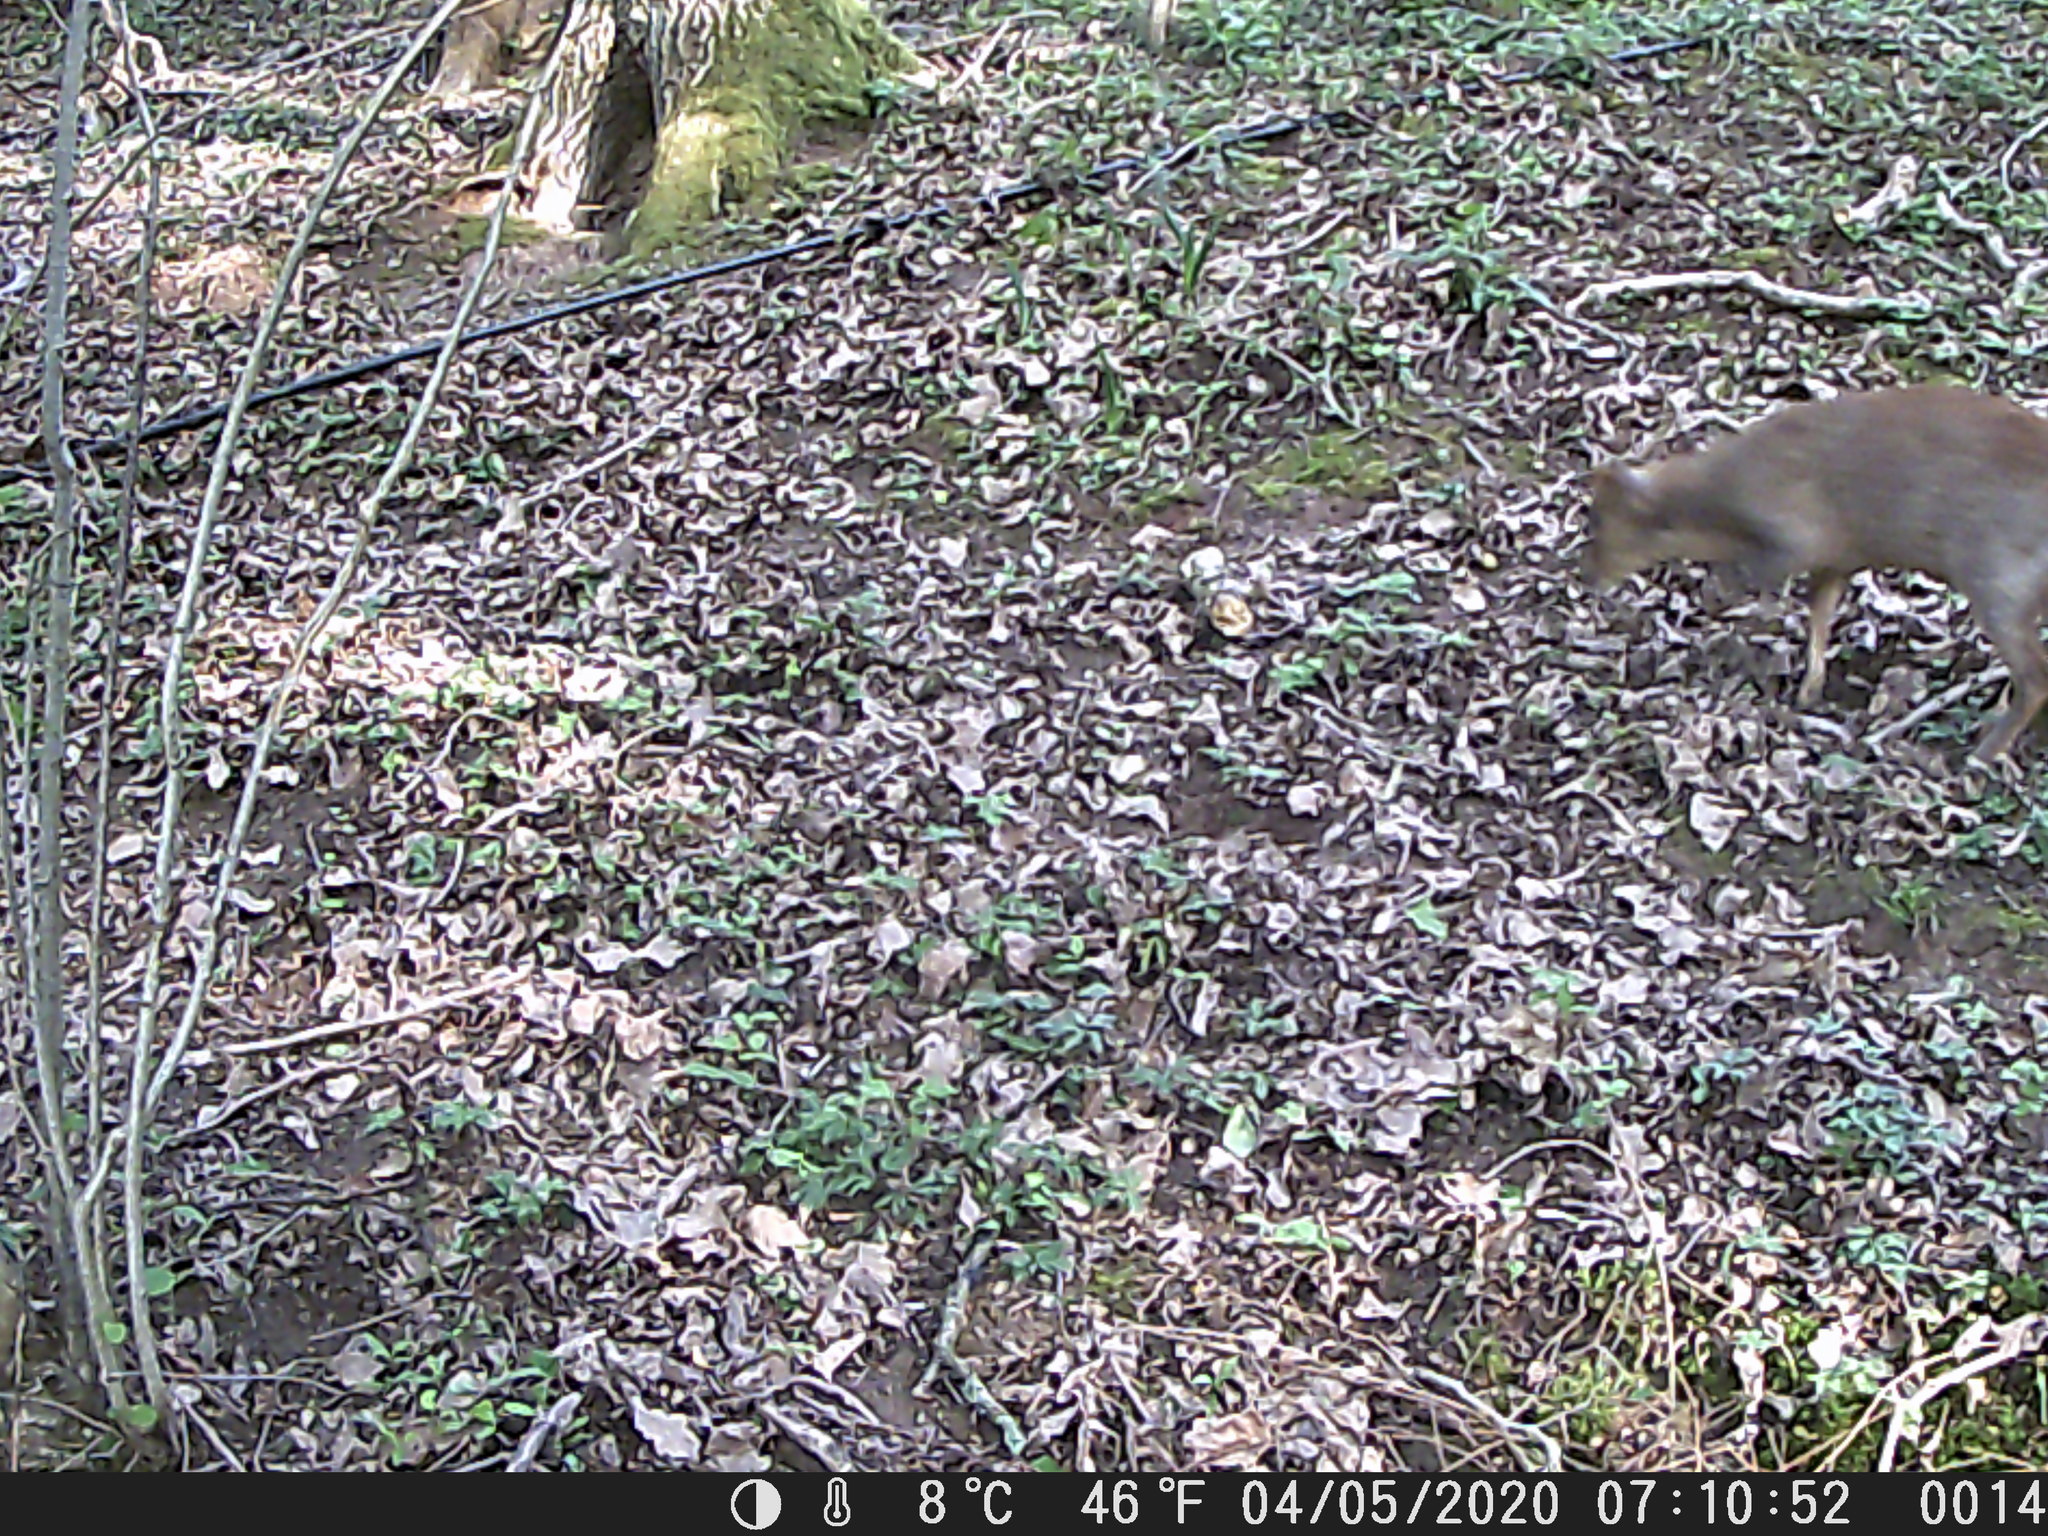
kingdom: Animalia
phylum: Chordata
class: Mammalia
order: Artiodactyla
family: Cervidae
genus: Muntiacus
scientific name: Muntiacus reevesi
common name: Reeves' muntjac
